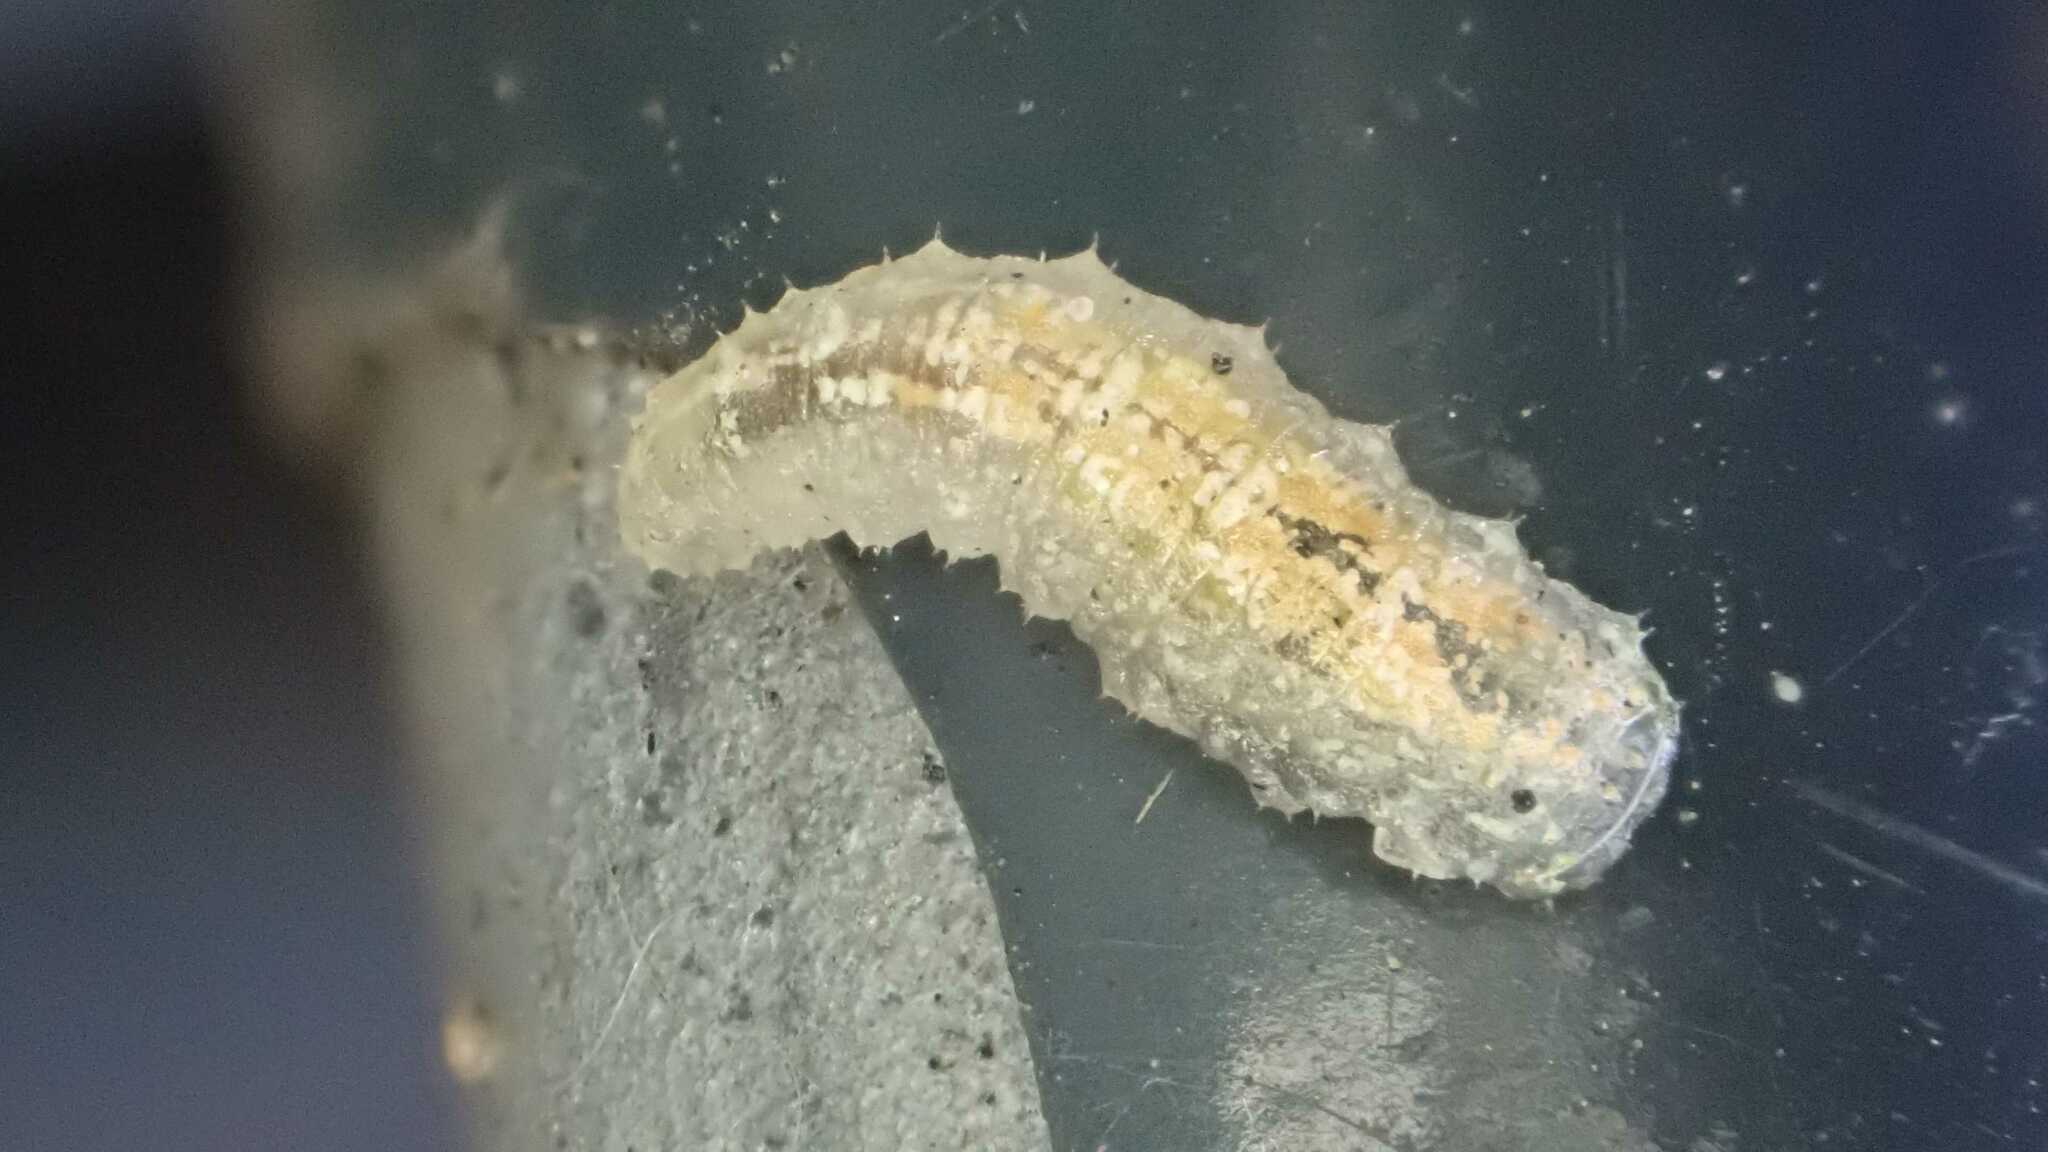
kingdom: Animalia
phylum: Arthropoda
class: Insecta
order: Diptera
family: Syrphidae
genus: Syrphus
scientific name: Syrphus
